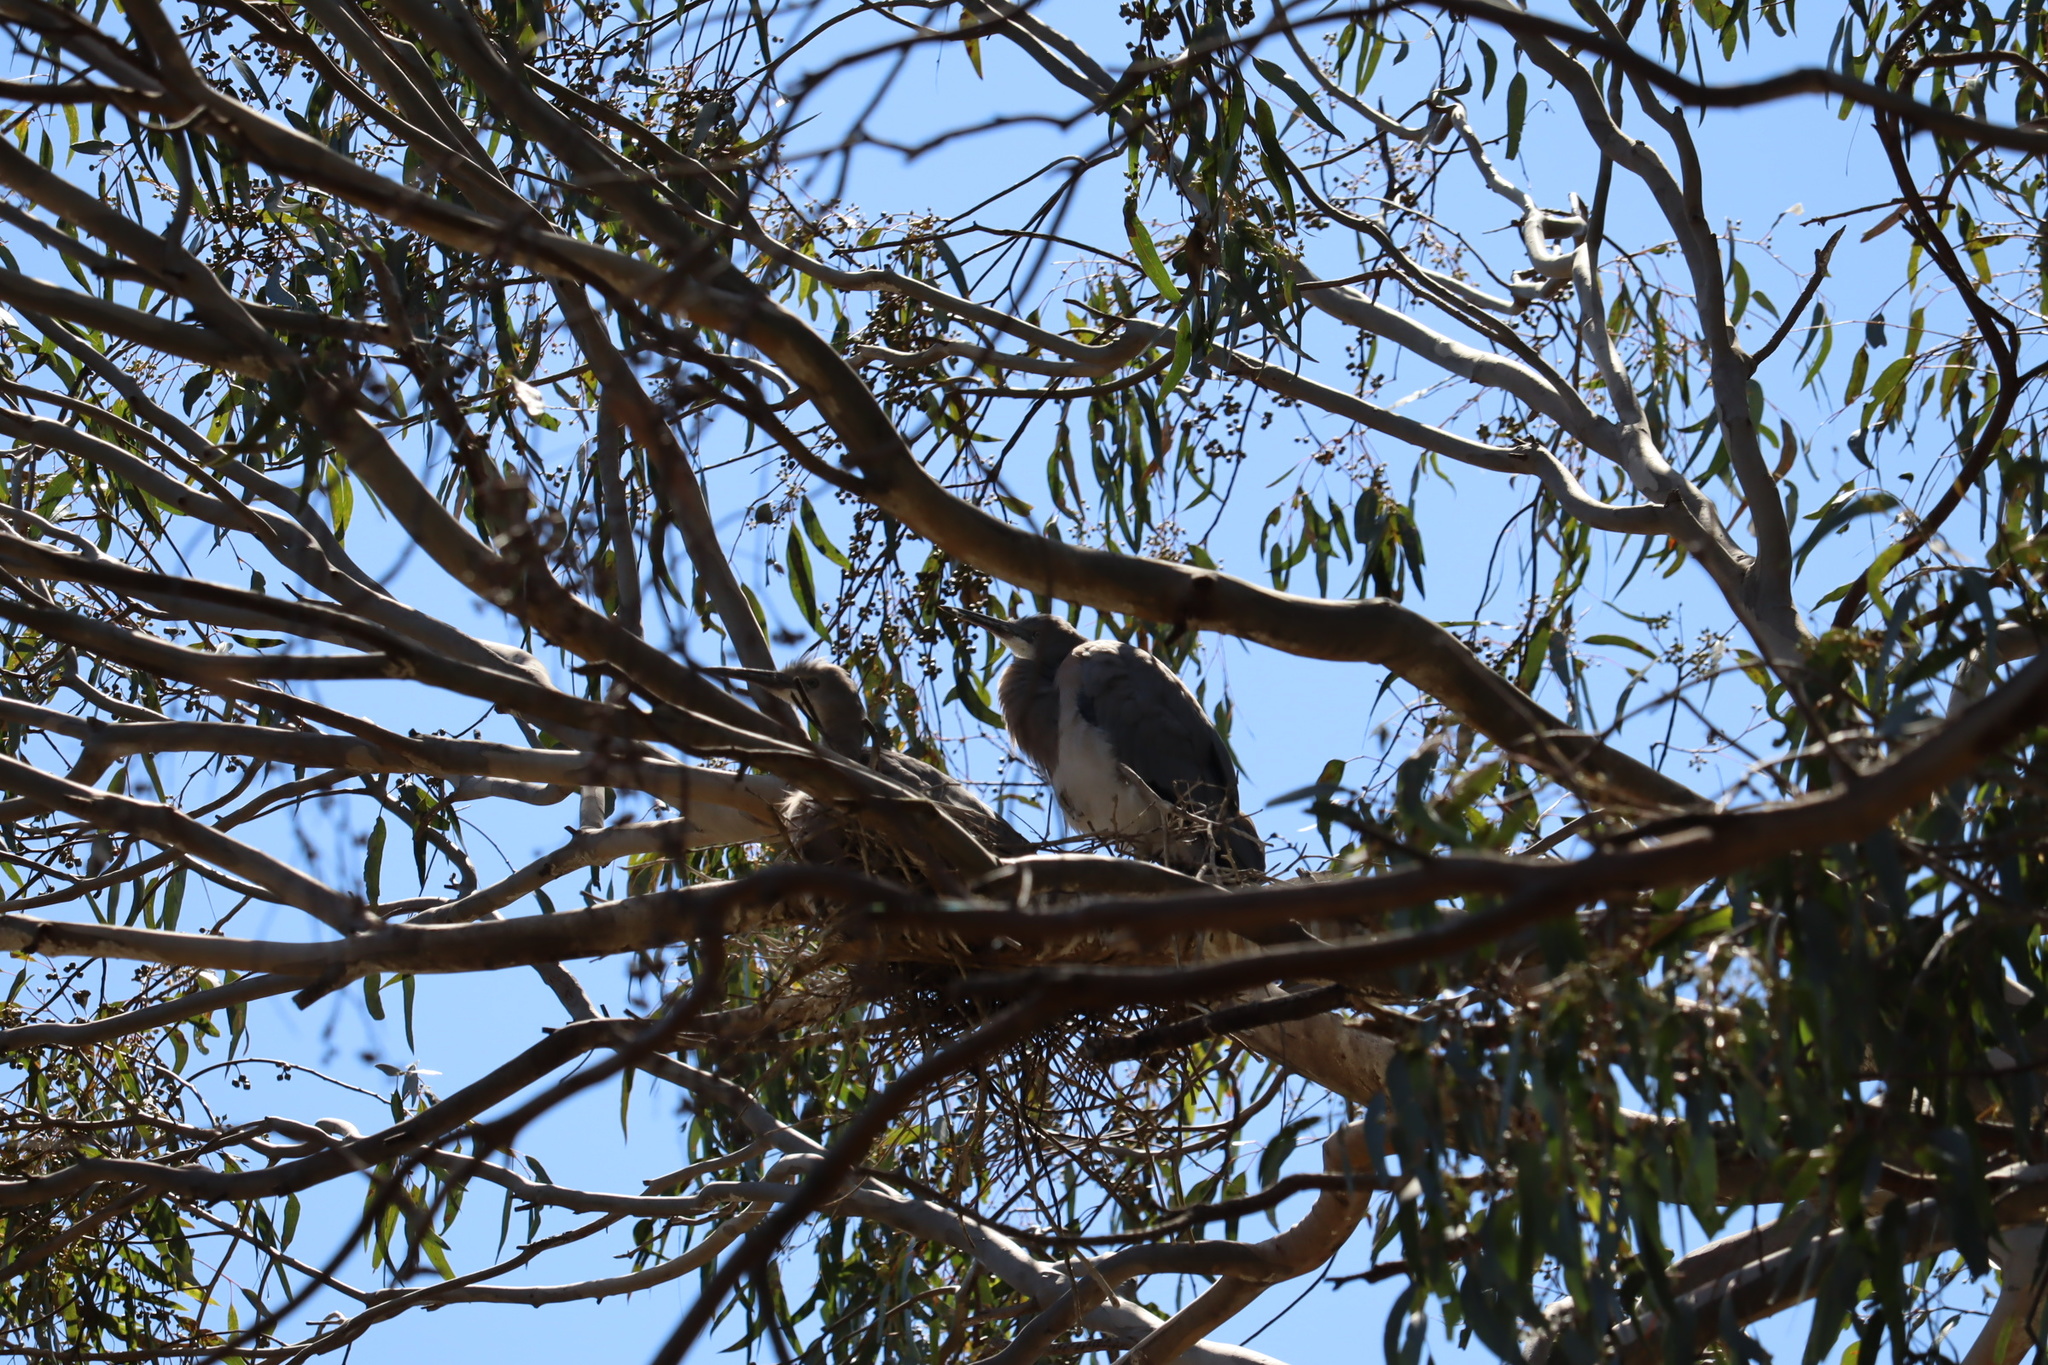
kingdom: Animalia
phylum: Chordata
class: Aves
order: Pelecaniformes
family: Ardeidae
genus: Egretta
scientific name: Egretta novaehollandiae
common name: White-faced heron
